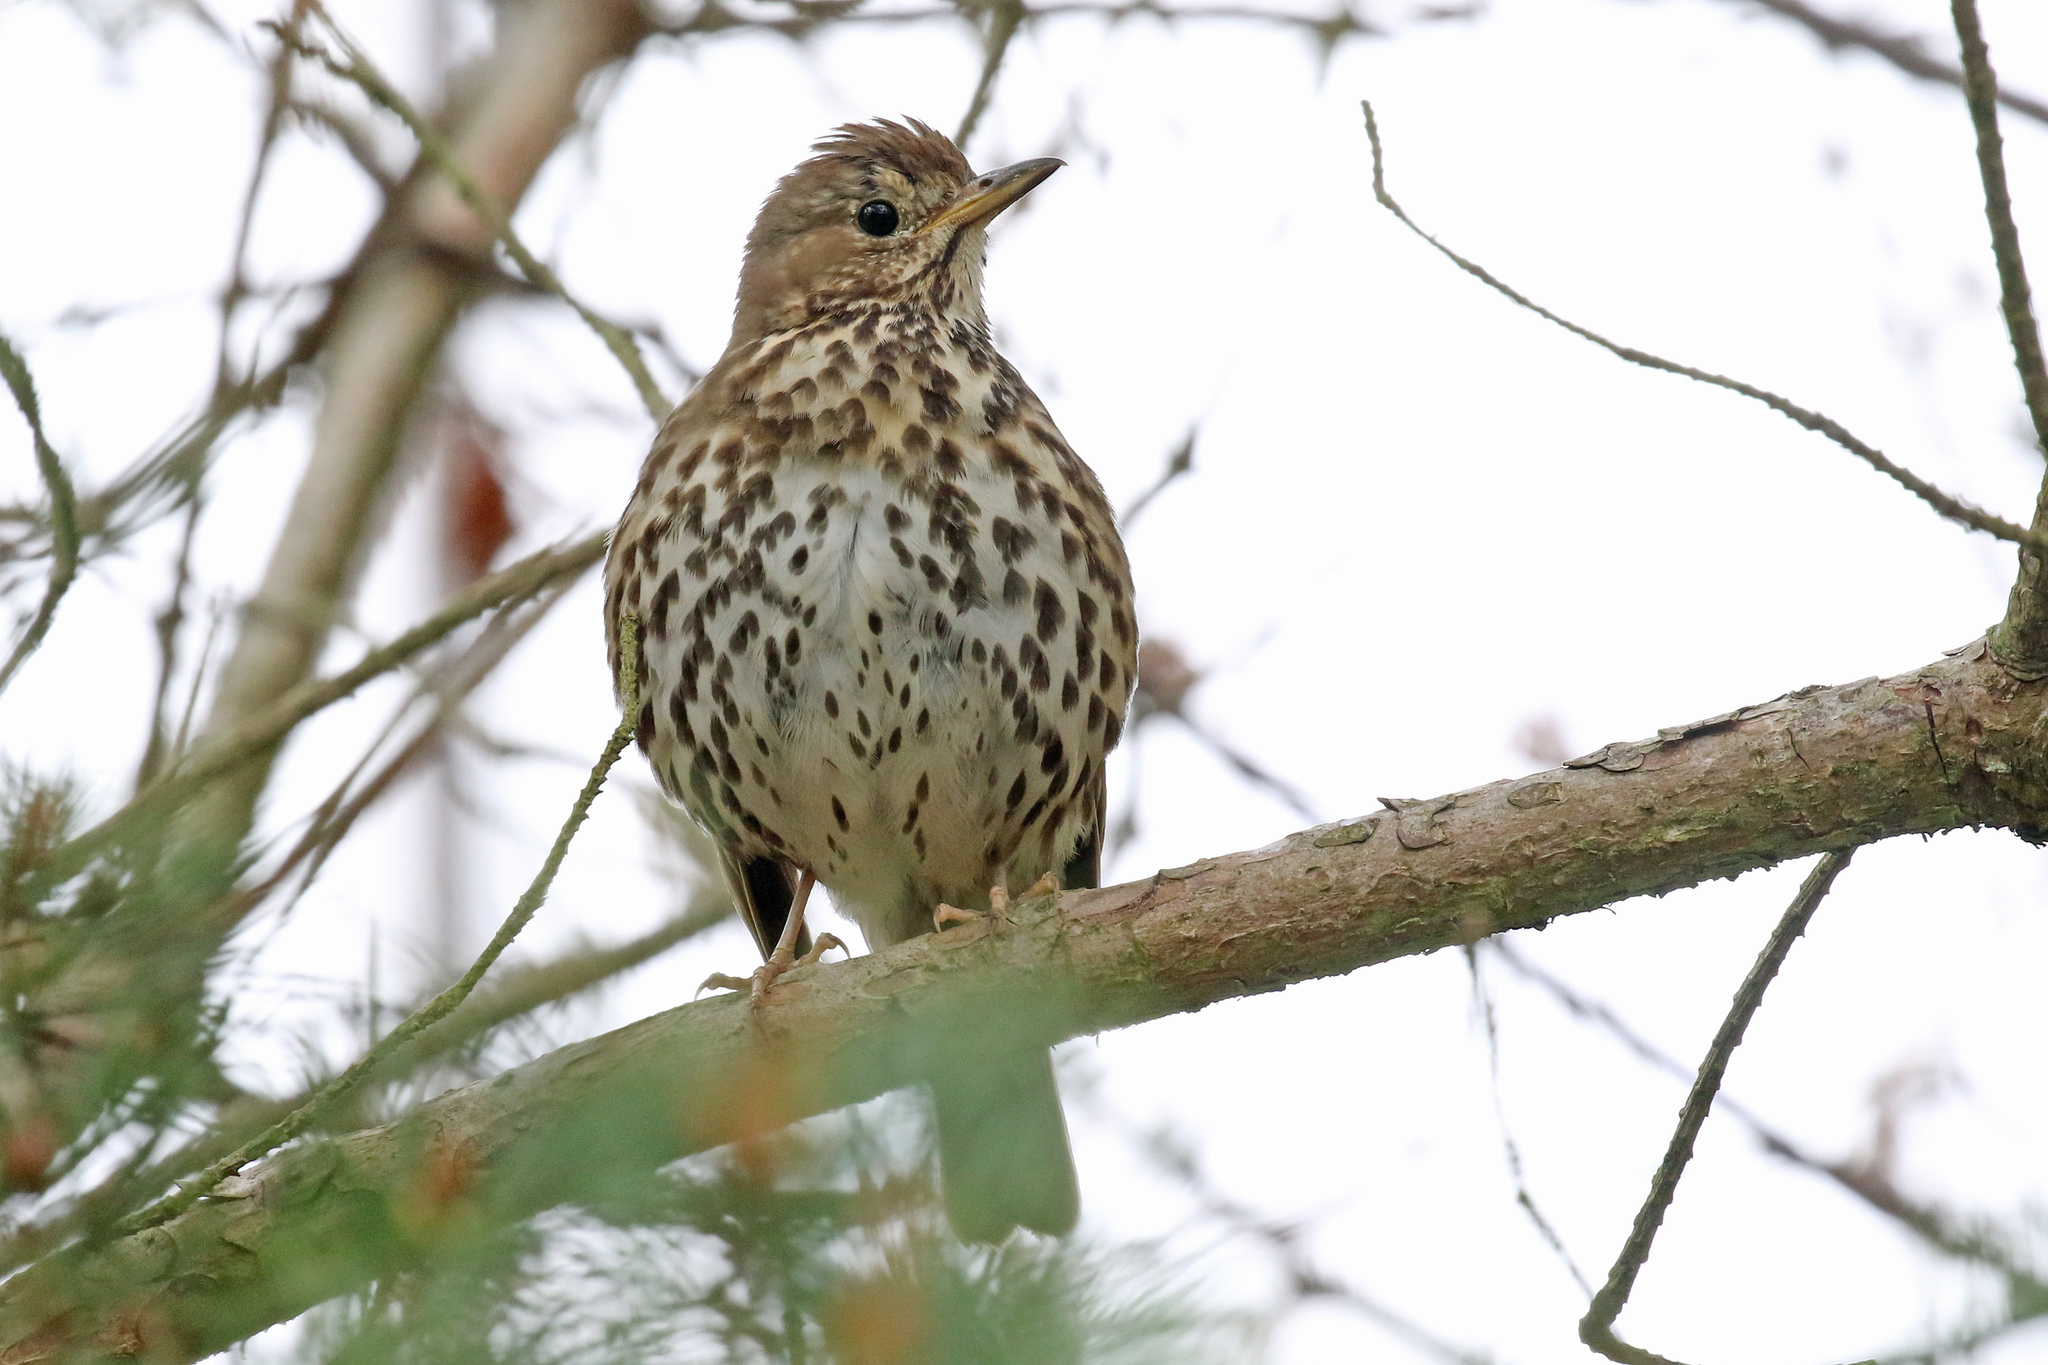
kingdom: Animalia
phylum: Chordata
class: Aves
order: Passeriformes
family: Turdidae
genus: Turdus
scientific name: Turdus philomelos
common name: Song thrush
